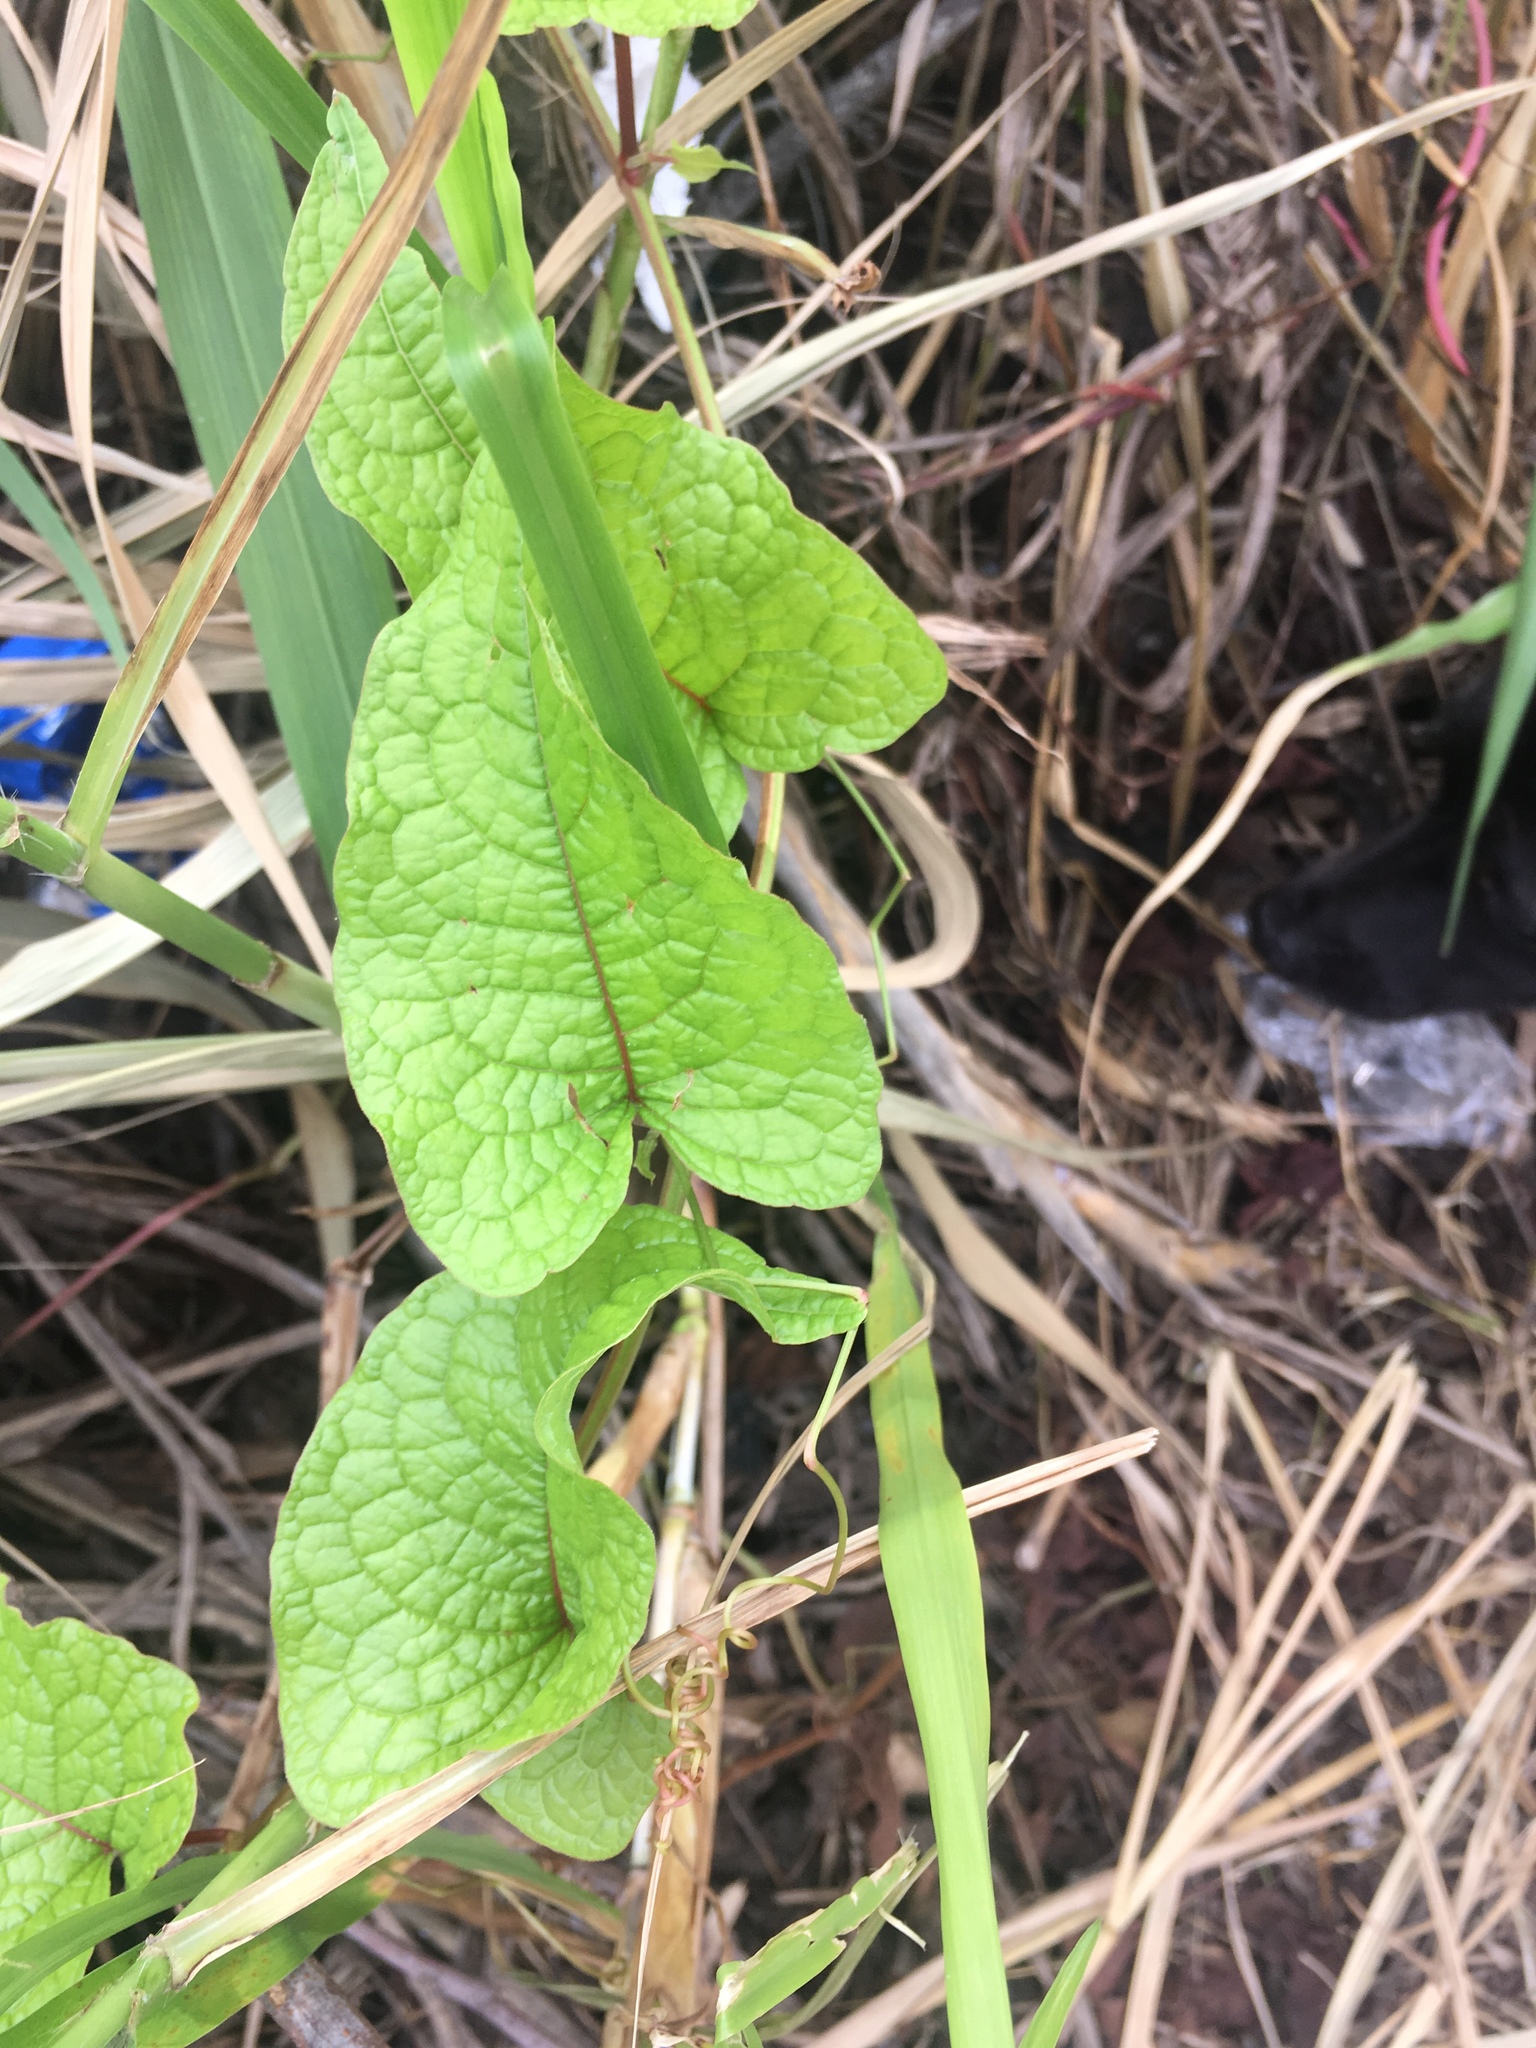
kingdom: Plantae
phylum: Tracheophyta
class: Magnoliopsida
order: Caryophyllales
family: Polygonaceae
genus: Antigonon
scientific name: Antigonon leptopus
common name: Coral vine
